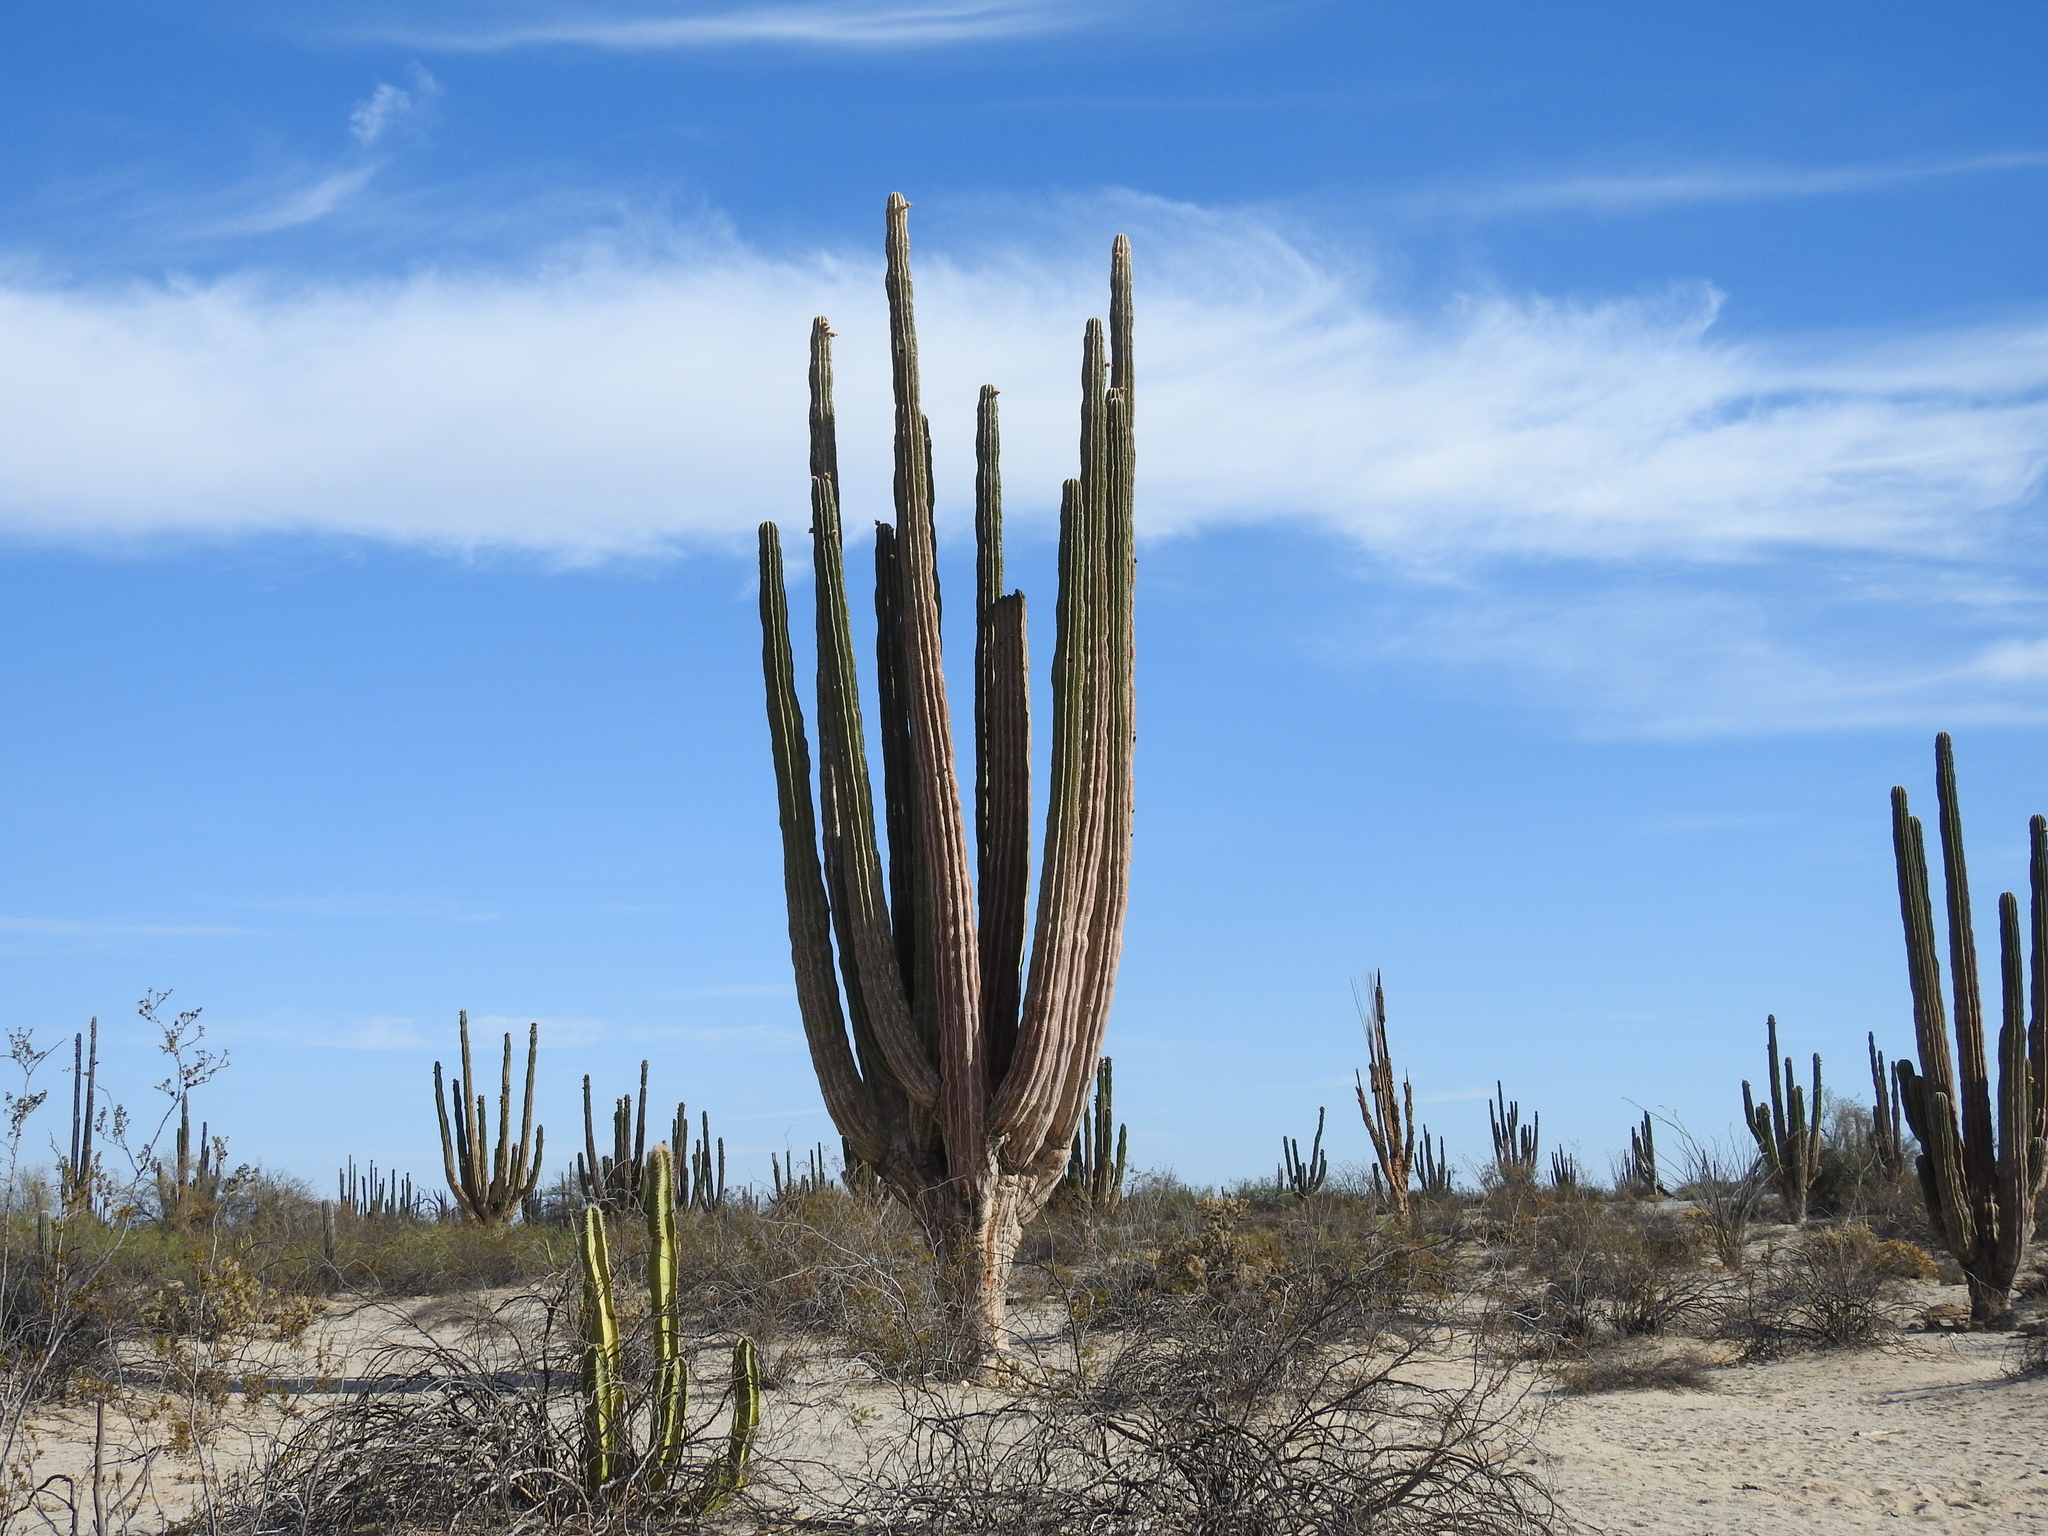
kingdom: Plantae
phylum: Tracheophyta
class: Magnoliopsida
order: Caryophyllales
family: Cactaceae
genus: Pachycereus
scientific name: Pachycereus pringlei
